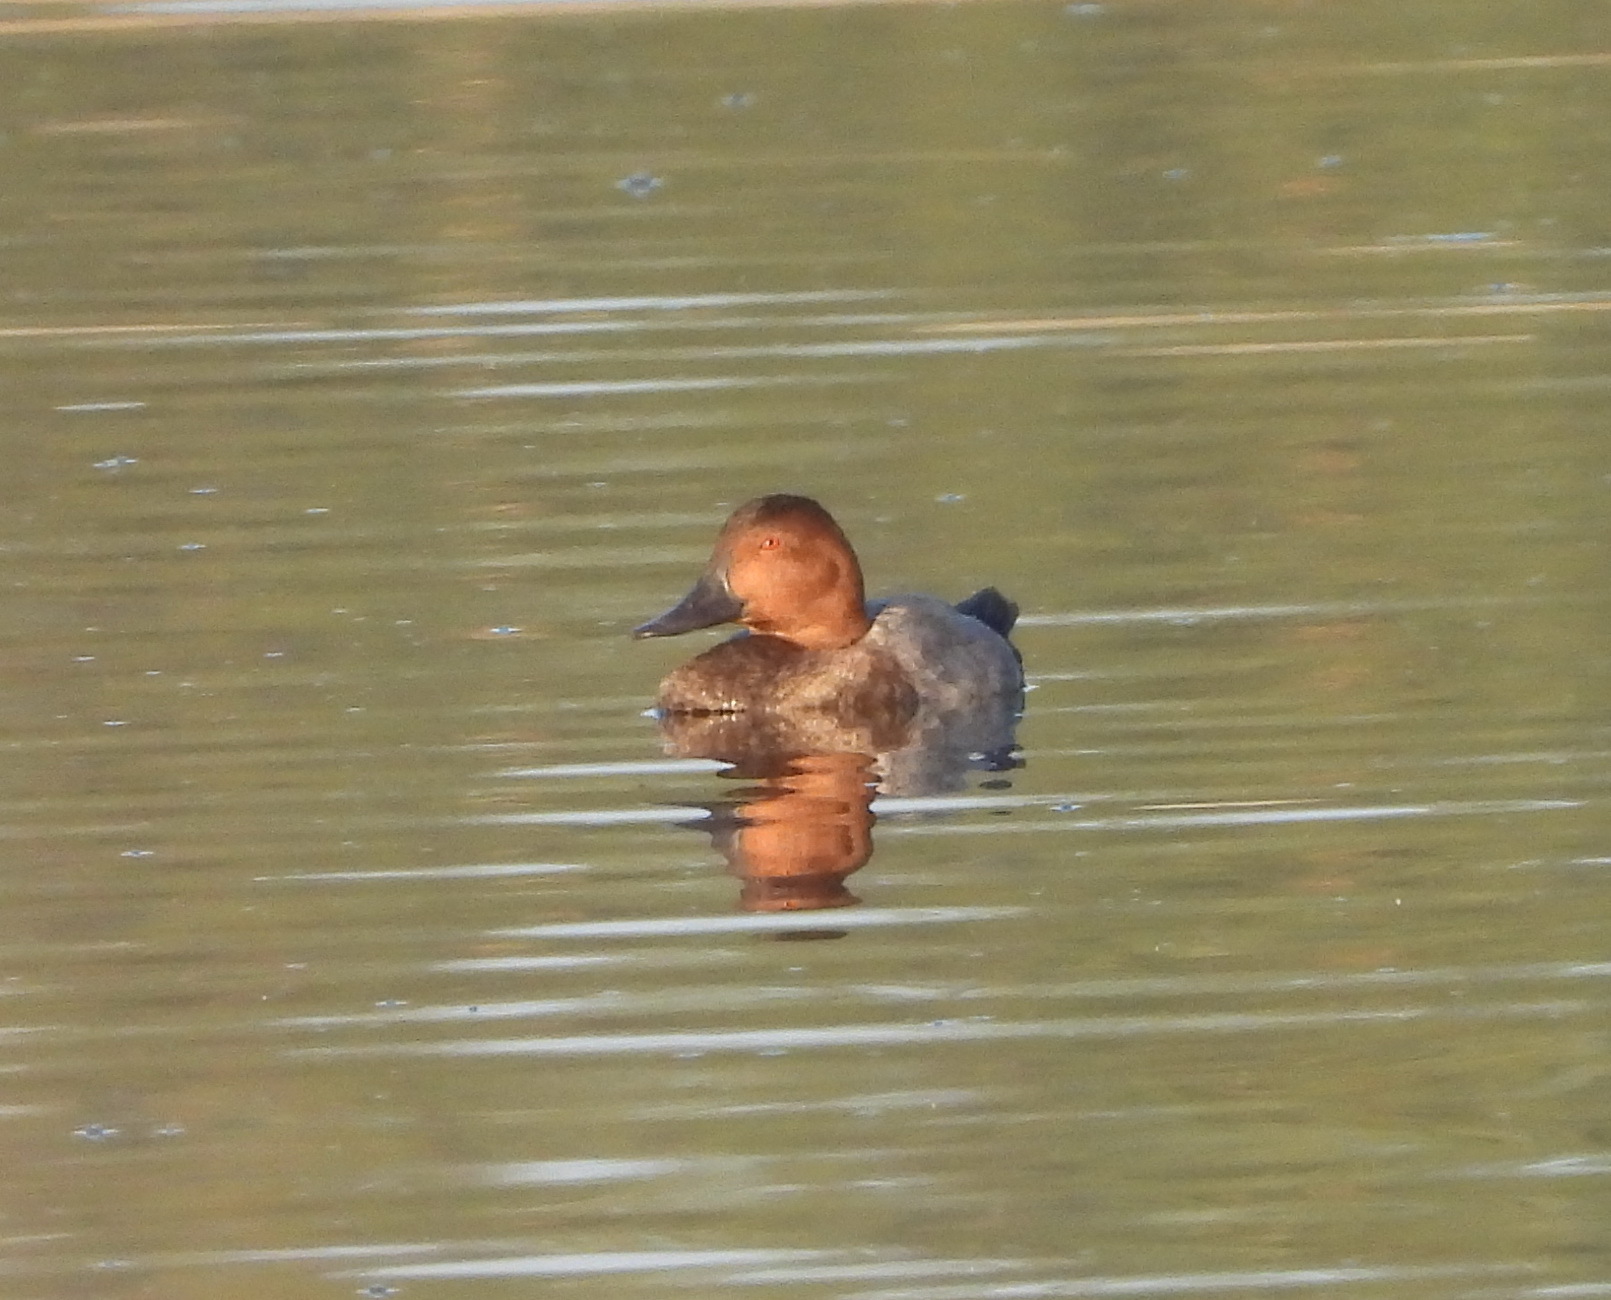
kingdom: Animalia
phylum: Chordata
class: Aves
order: Anseriformes
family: Anatidae
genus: Aythya
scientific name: Aythya ferina
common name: Common pochard
